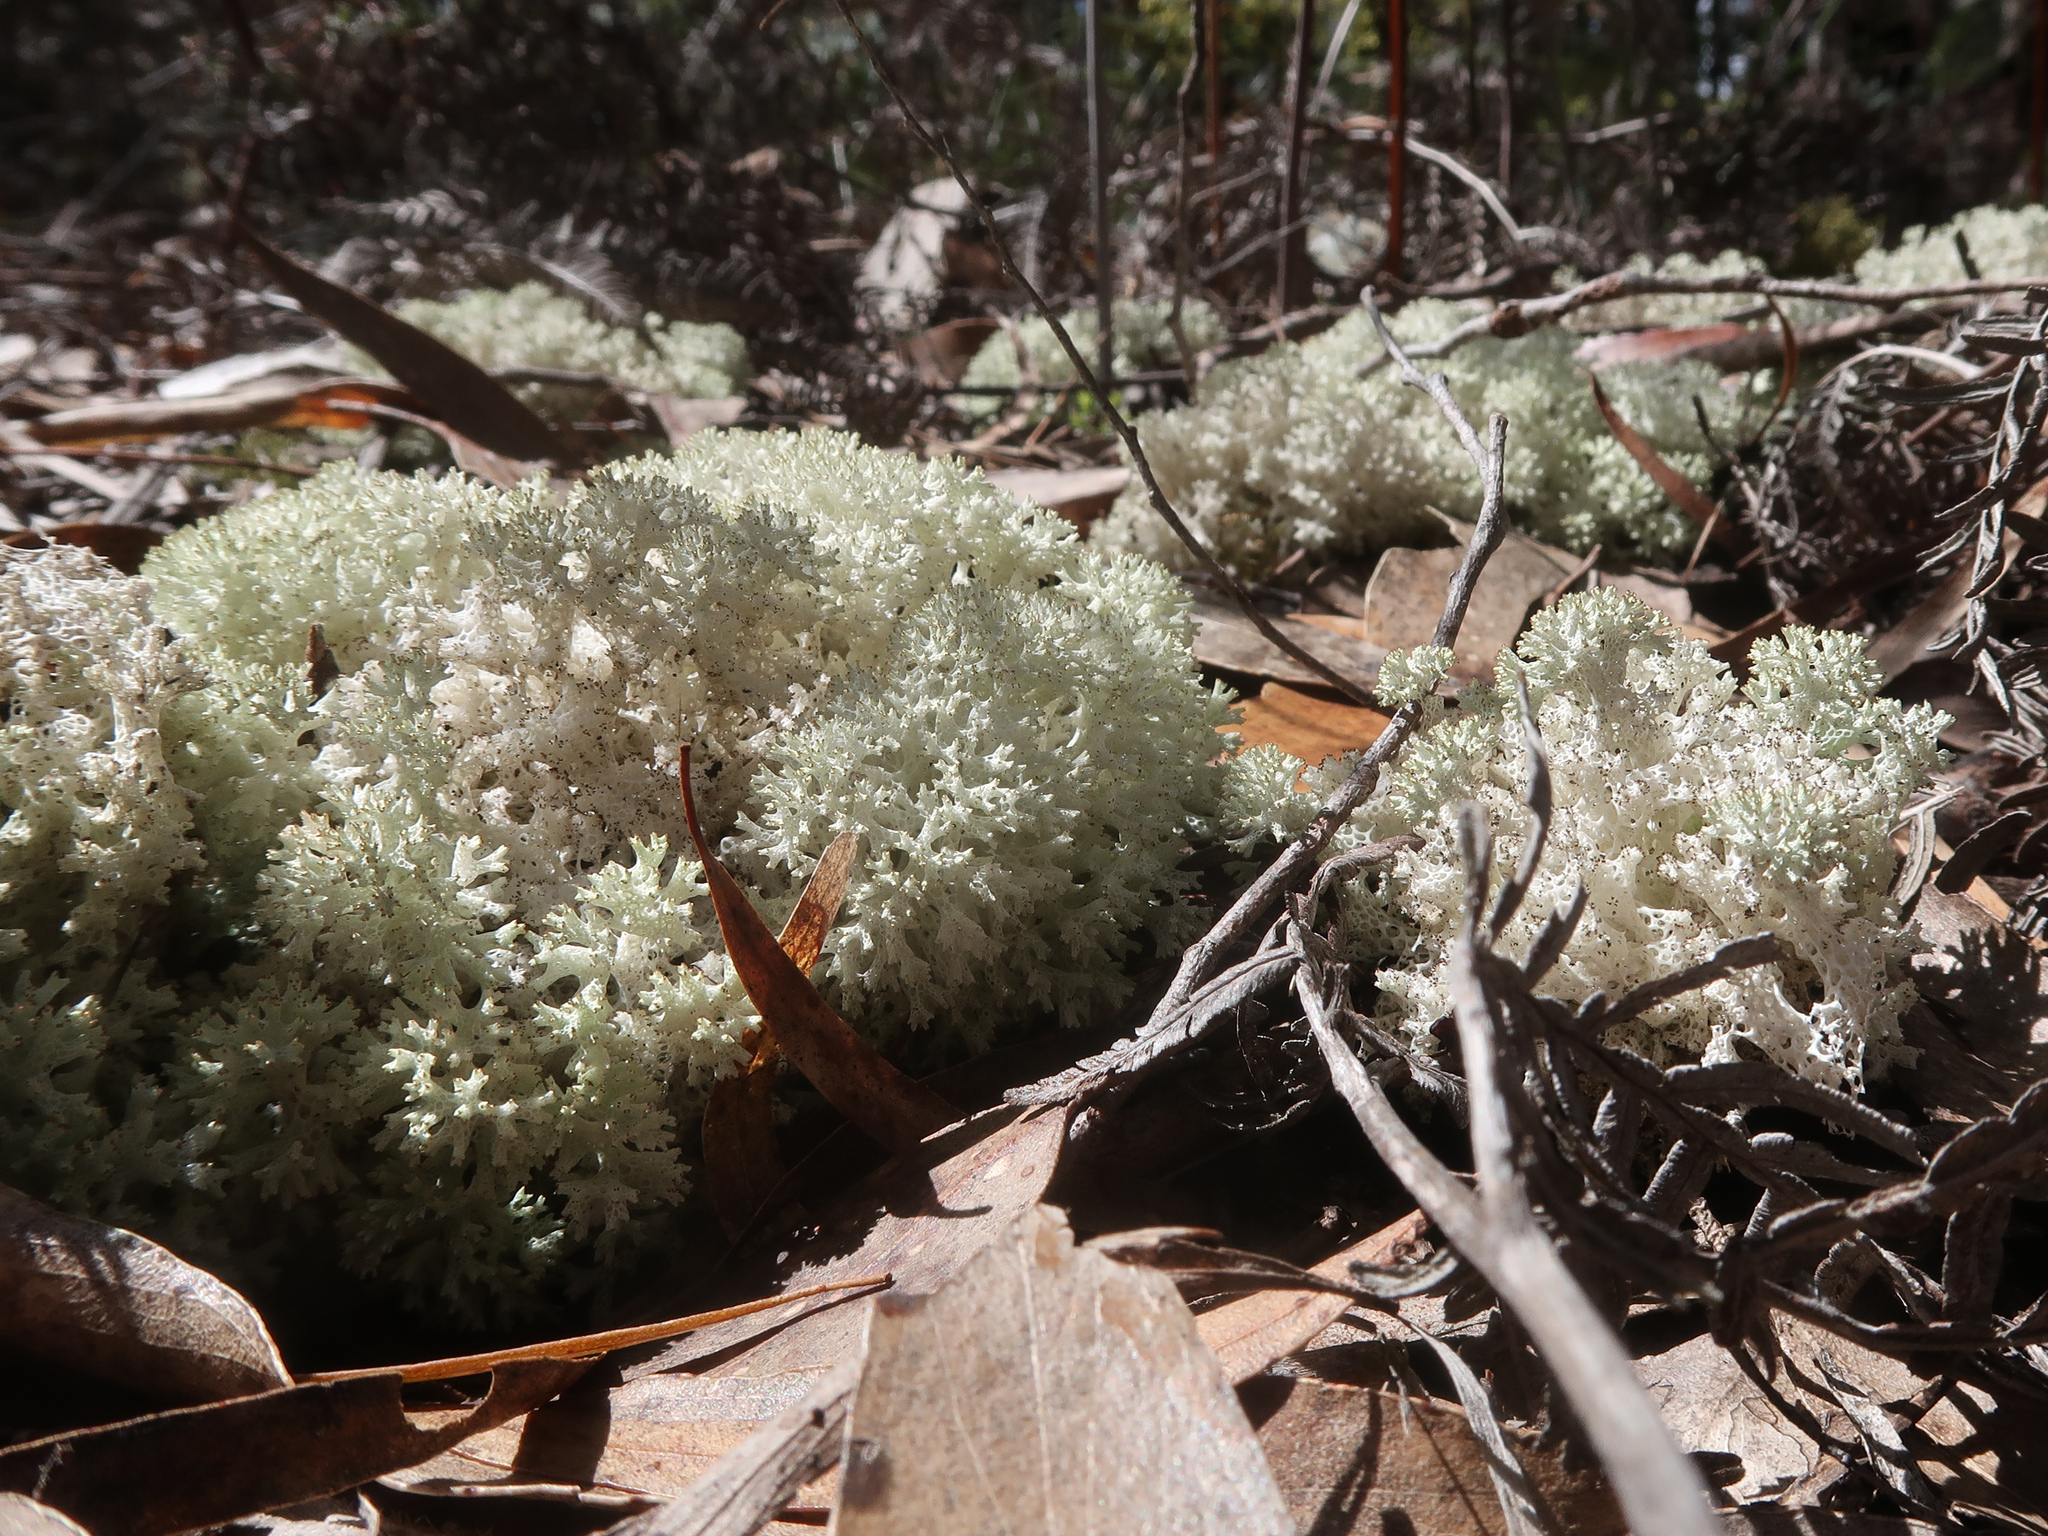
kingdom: Fungi
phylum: Ascomycota
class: Lecanoromycetes
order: Lecanorales
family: Cladoniaceae
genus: Pulchrocladia
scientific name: Pulchrocladia retipora
